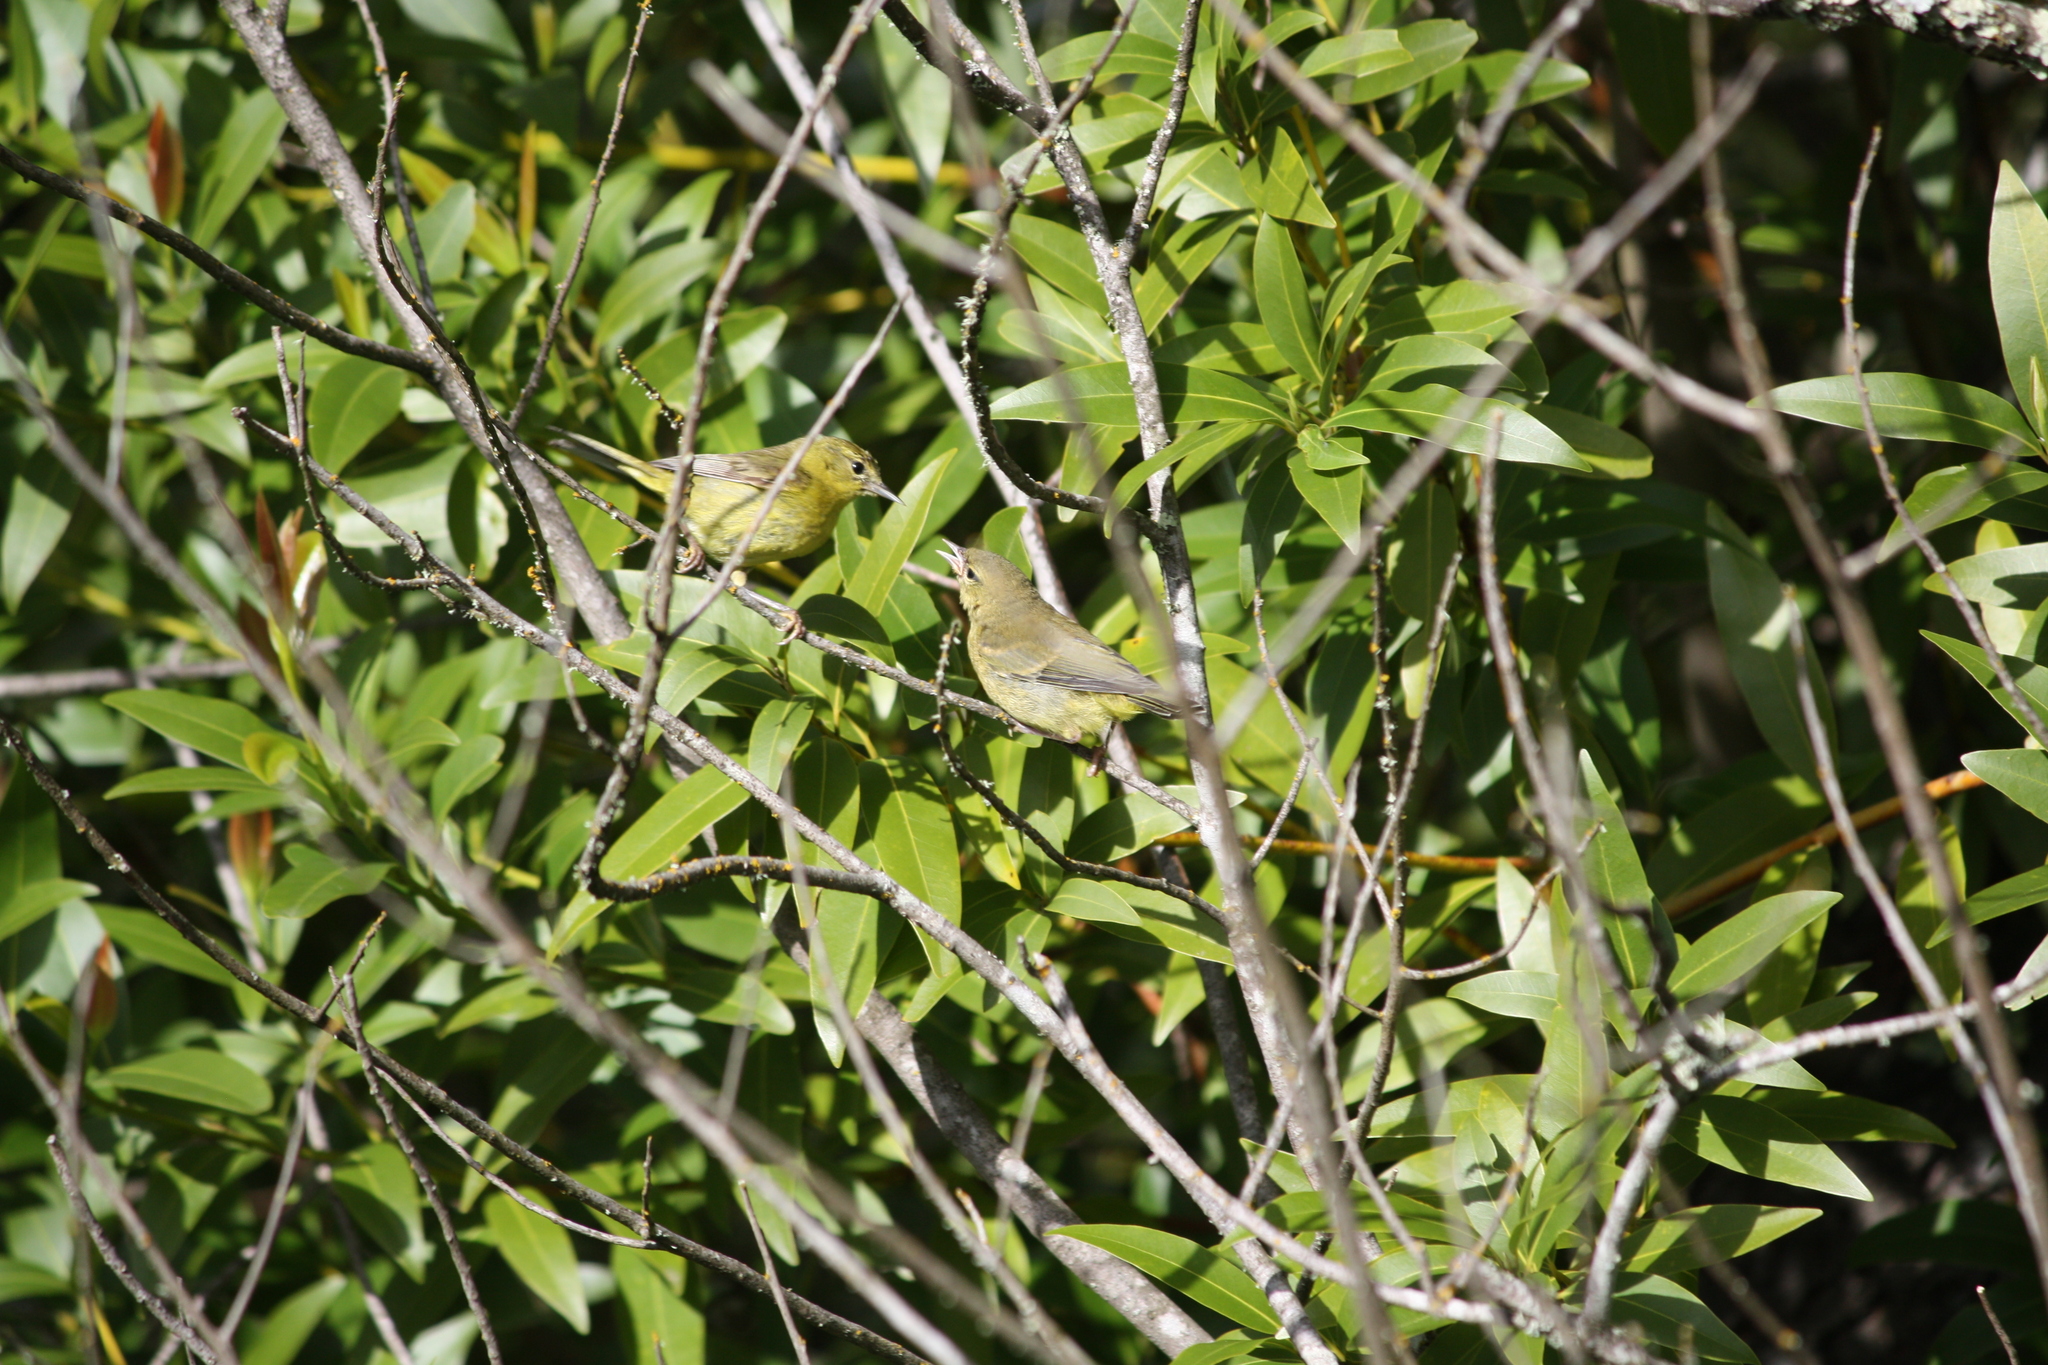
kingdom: Animalia
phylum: Chordata
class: Aves
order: Passeriformes
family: Parulidae
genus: Leiothlypis
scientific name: Leiothlypis celata
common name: Orange-crowned warbler
